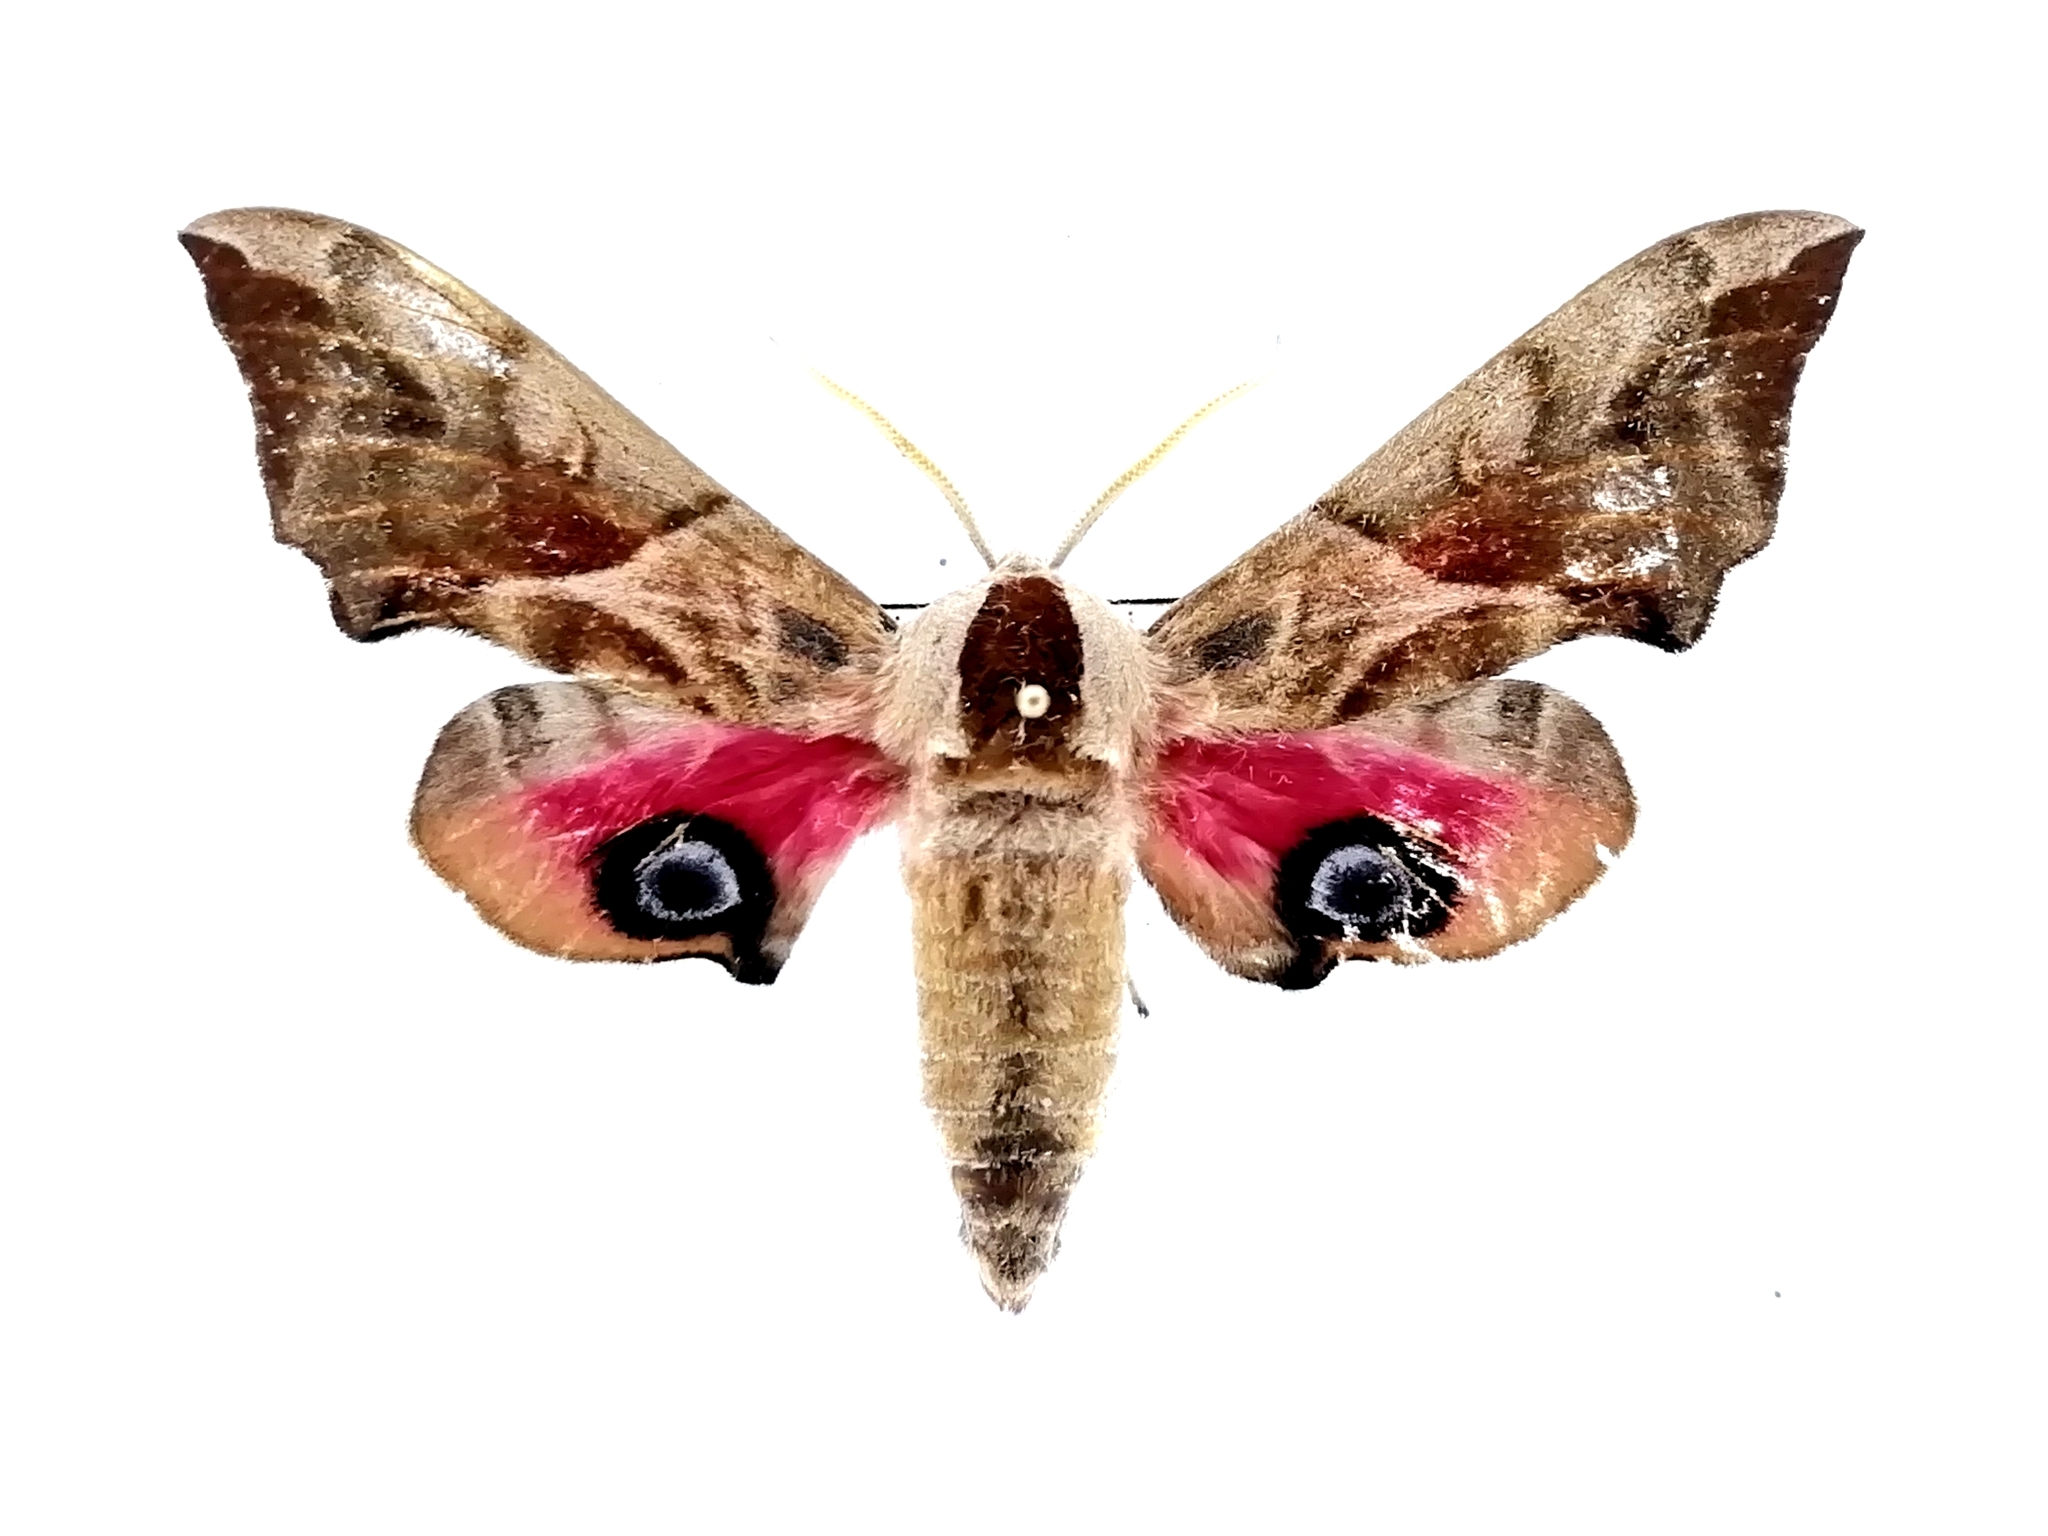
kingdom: Animalia
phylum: Arthropoda
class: Insecta
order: Lepidoptera
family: Sphingidae
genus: Smerinthus
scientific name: Smerinthus ocellata
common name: Eyed hawk-moth
